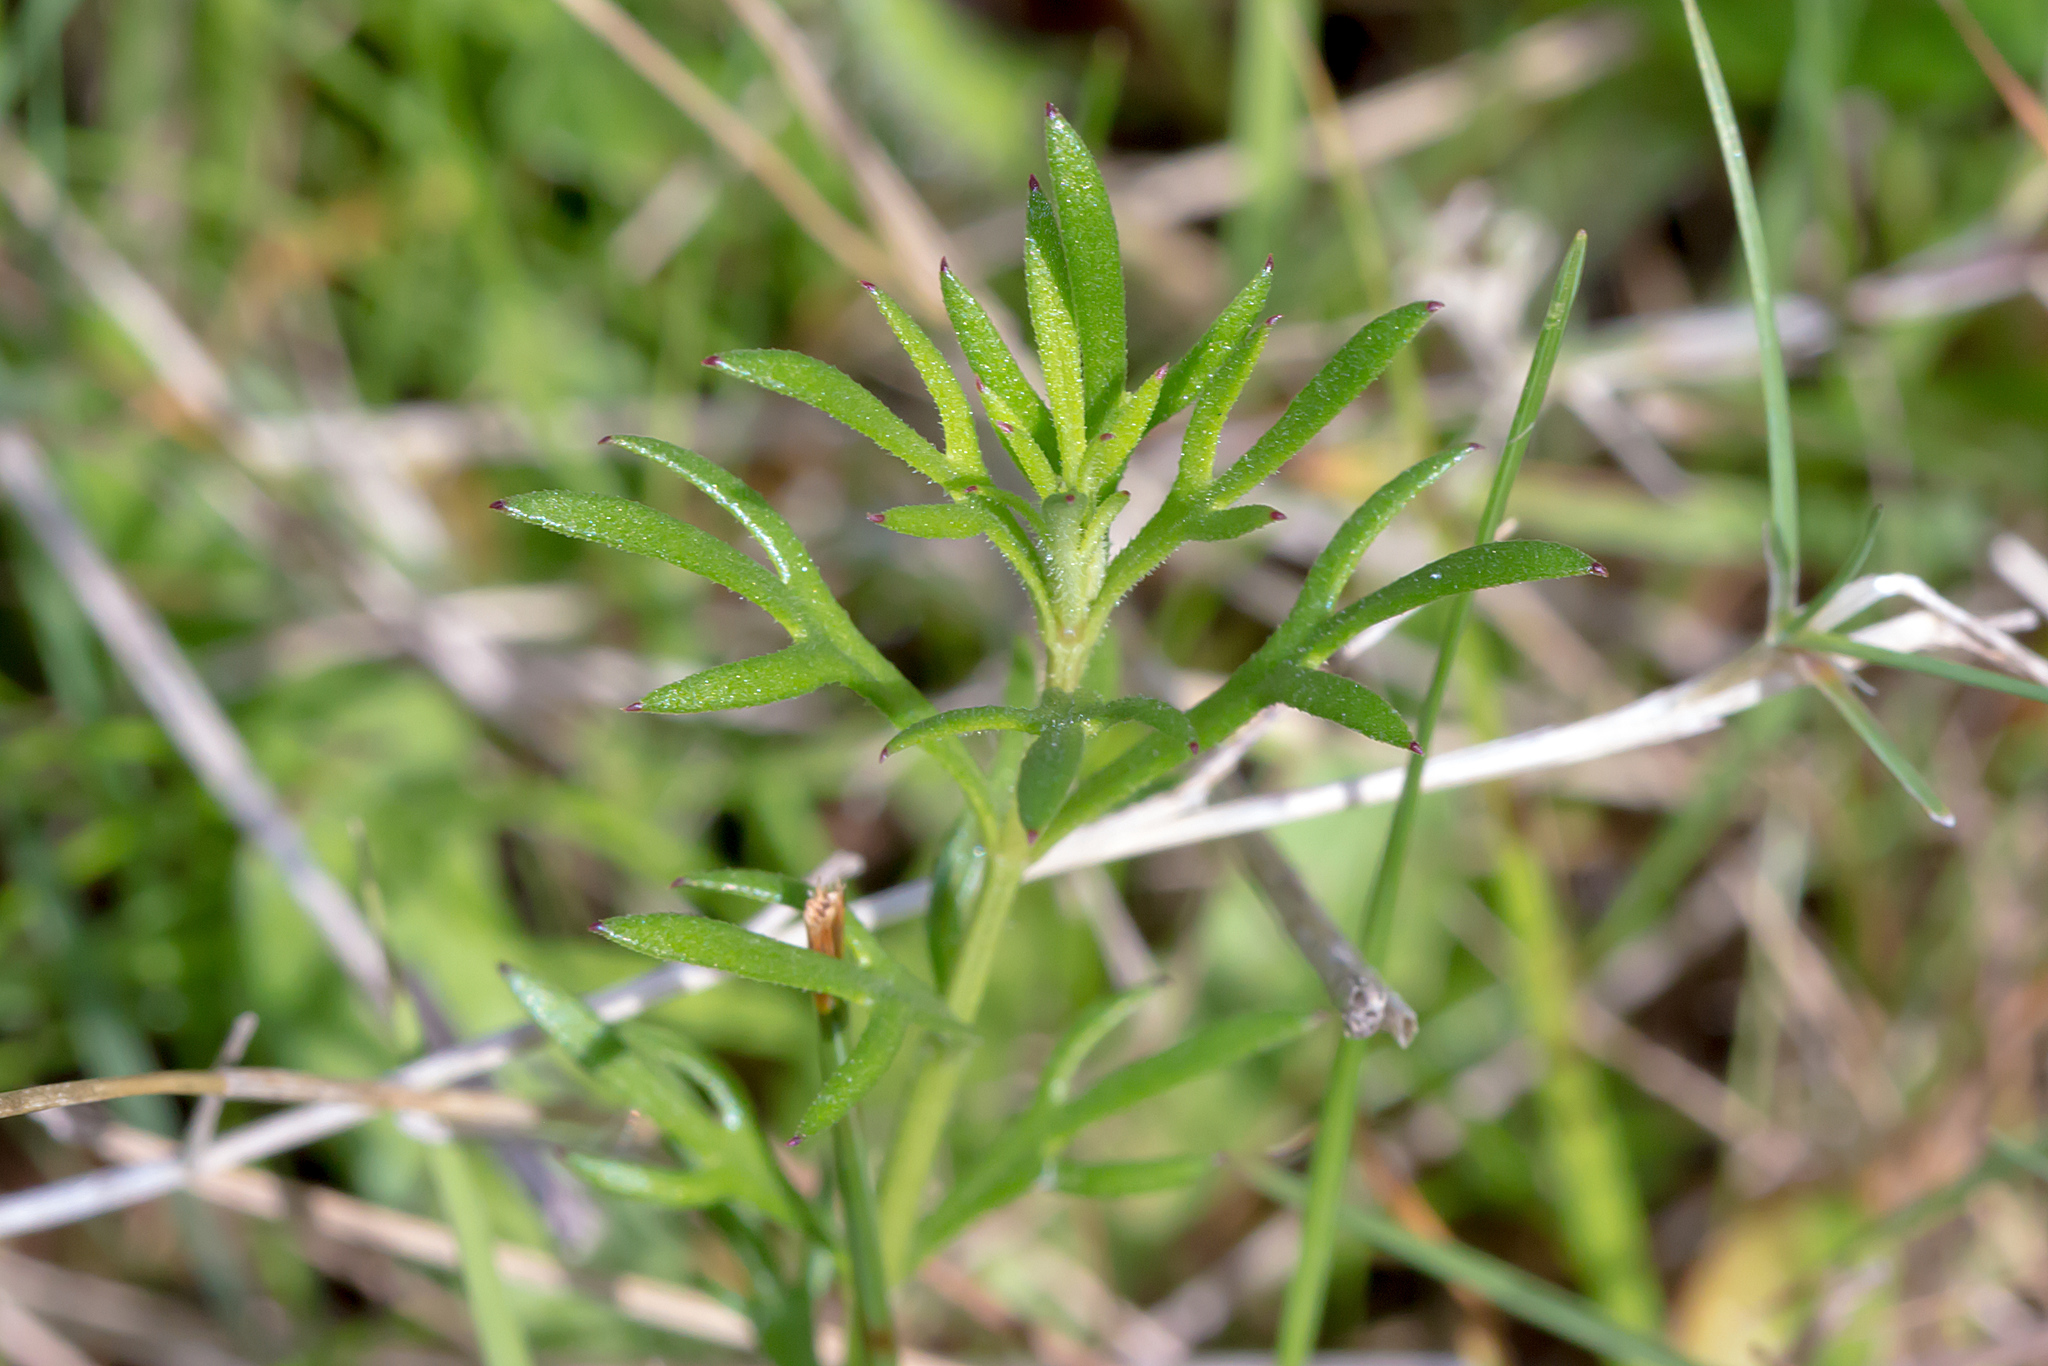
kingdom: Plantae
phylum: Tracheophyta
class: Magnoliopsida
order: Saxifragales
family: Haloragaceae
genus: Haloragis
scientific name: Haloragis heterophylla
